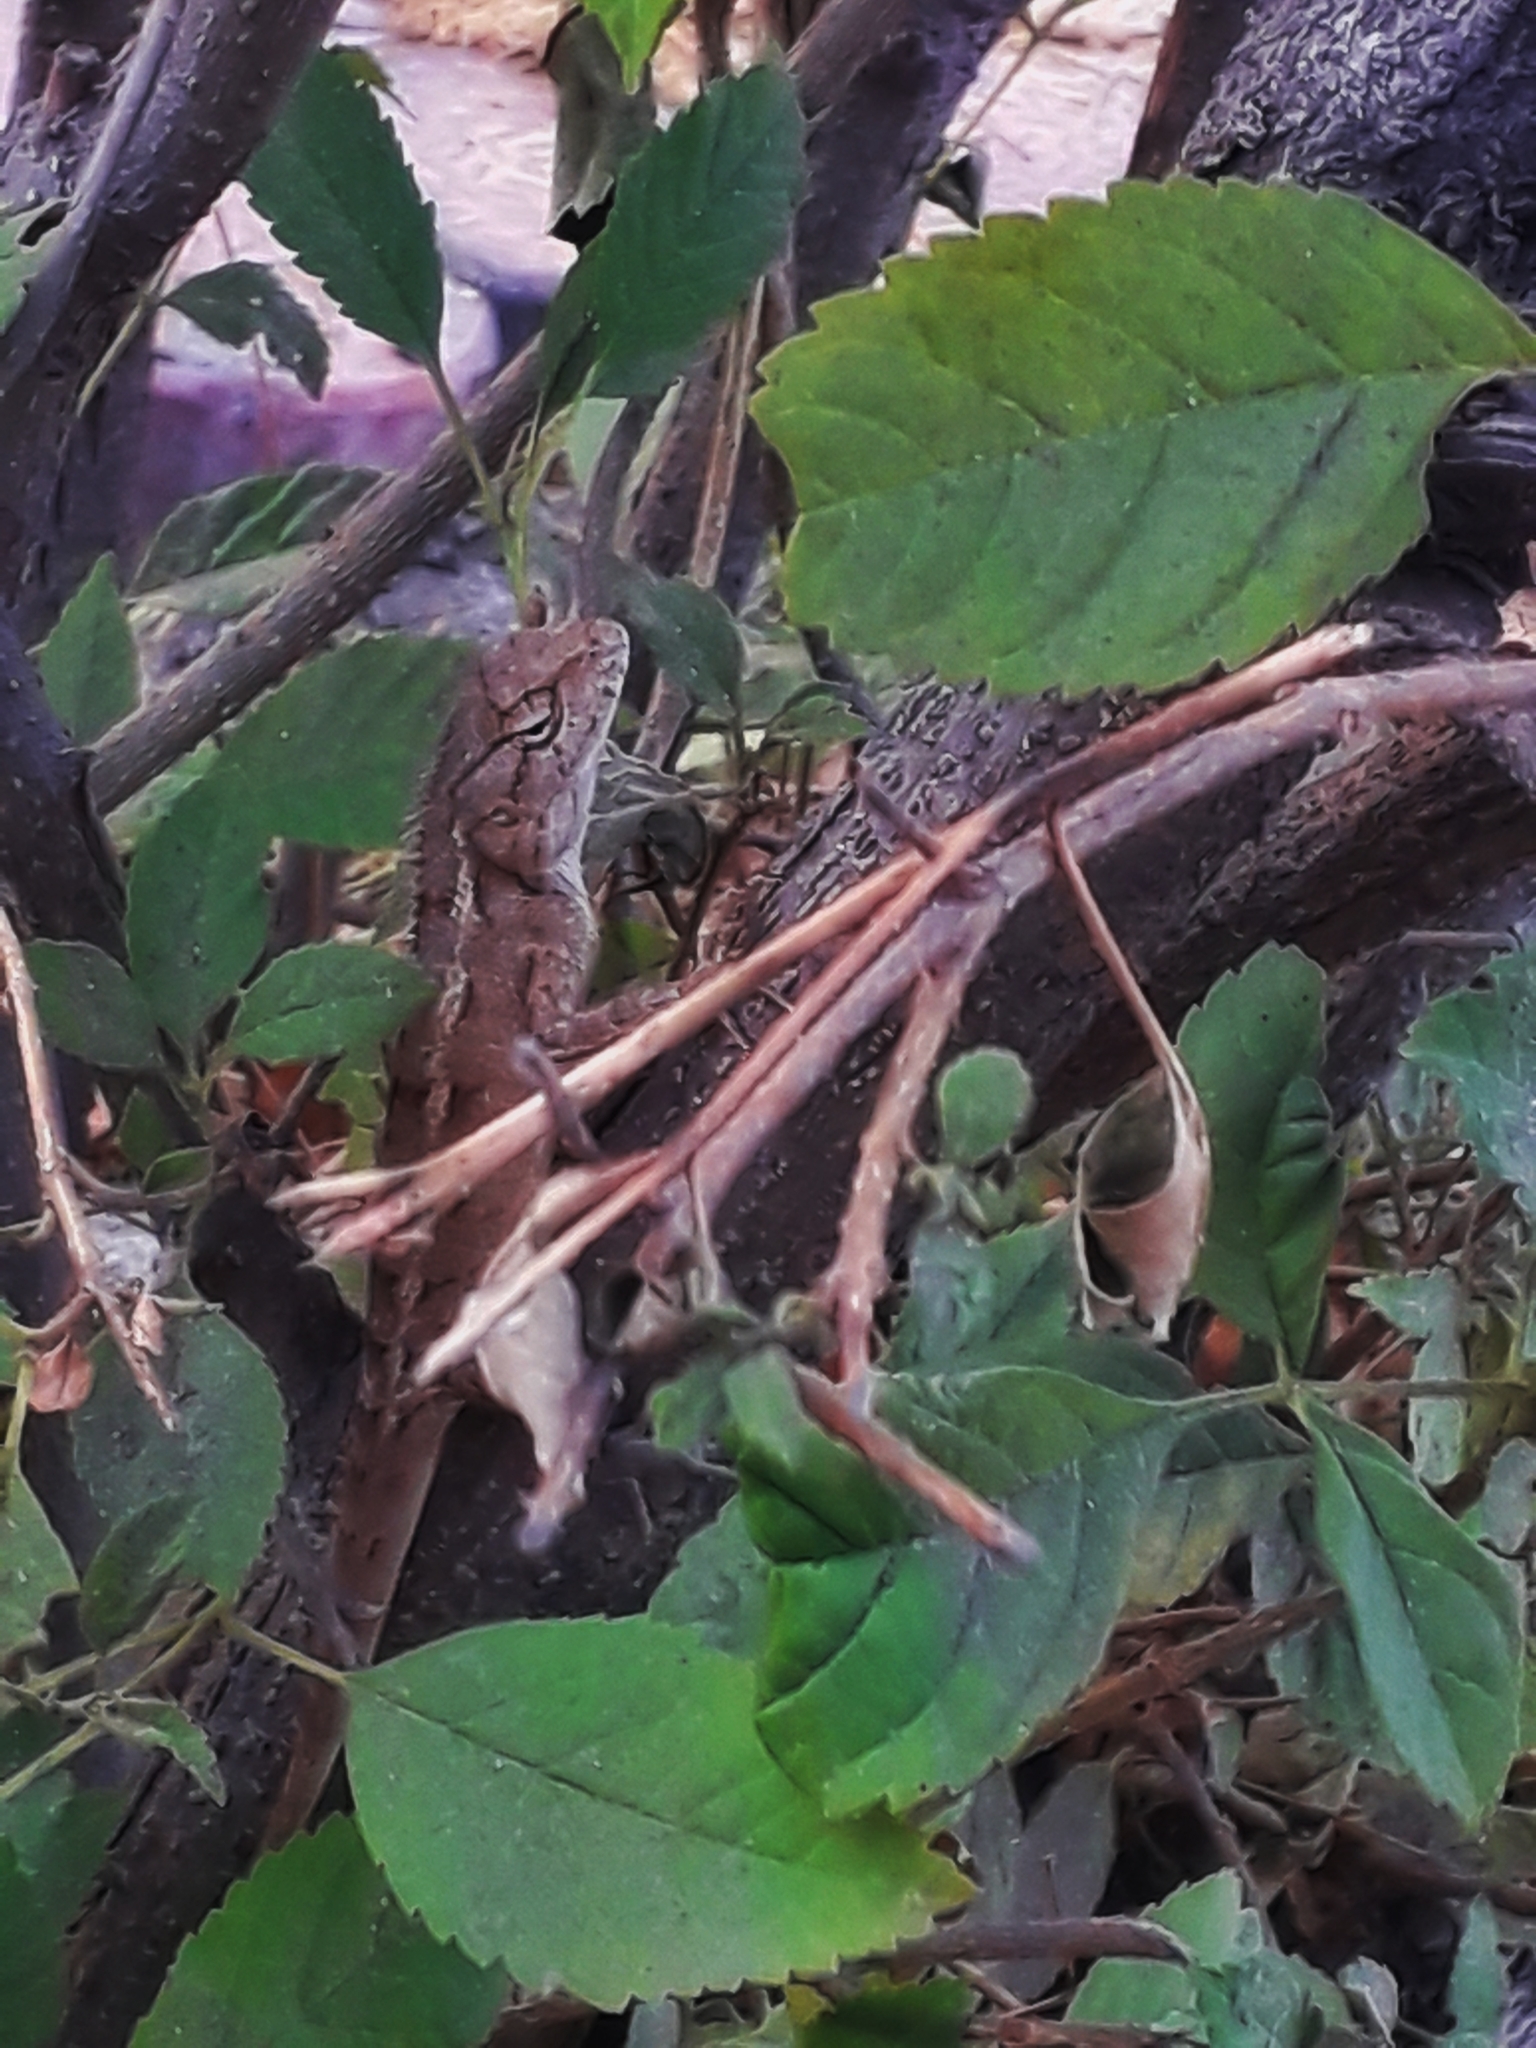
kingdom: Animalia
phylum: Chordata
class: Squamata
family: Agamidae
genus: Calotes
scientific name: Calotes versicolor
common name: Oriental garden lizard
